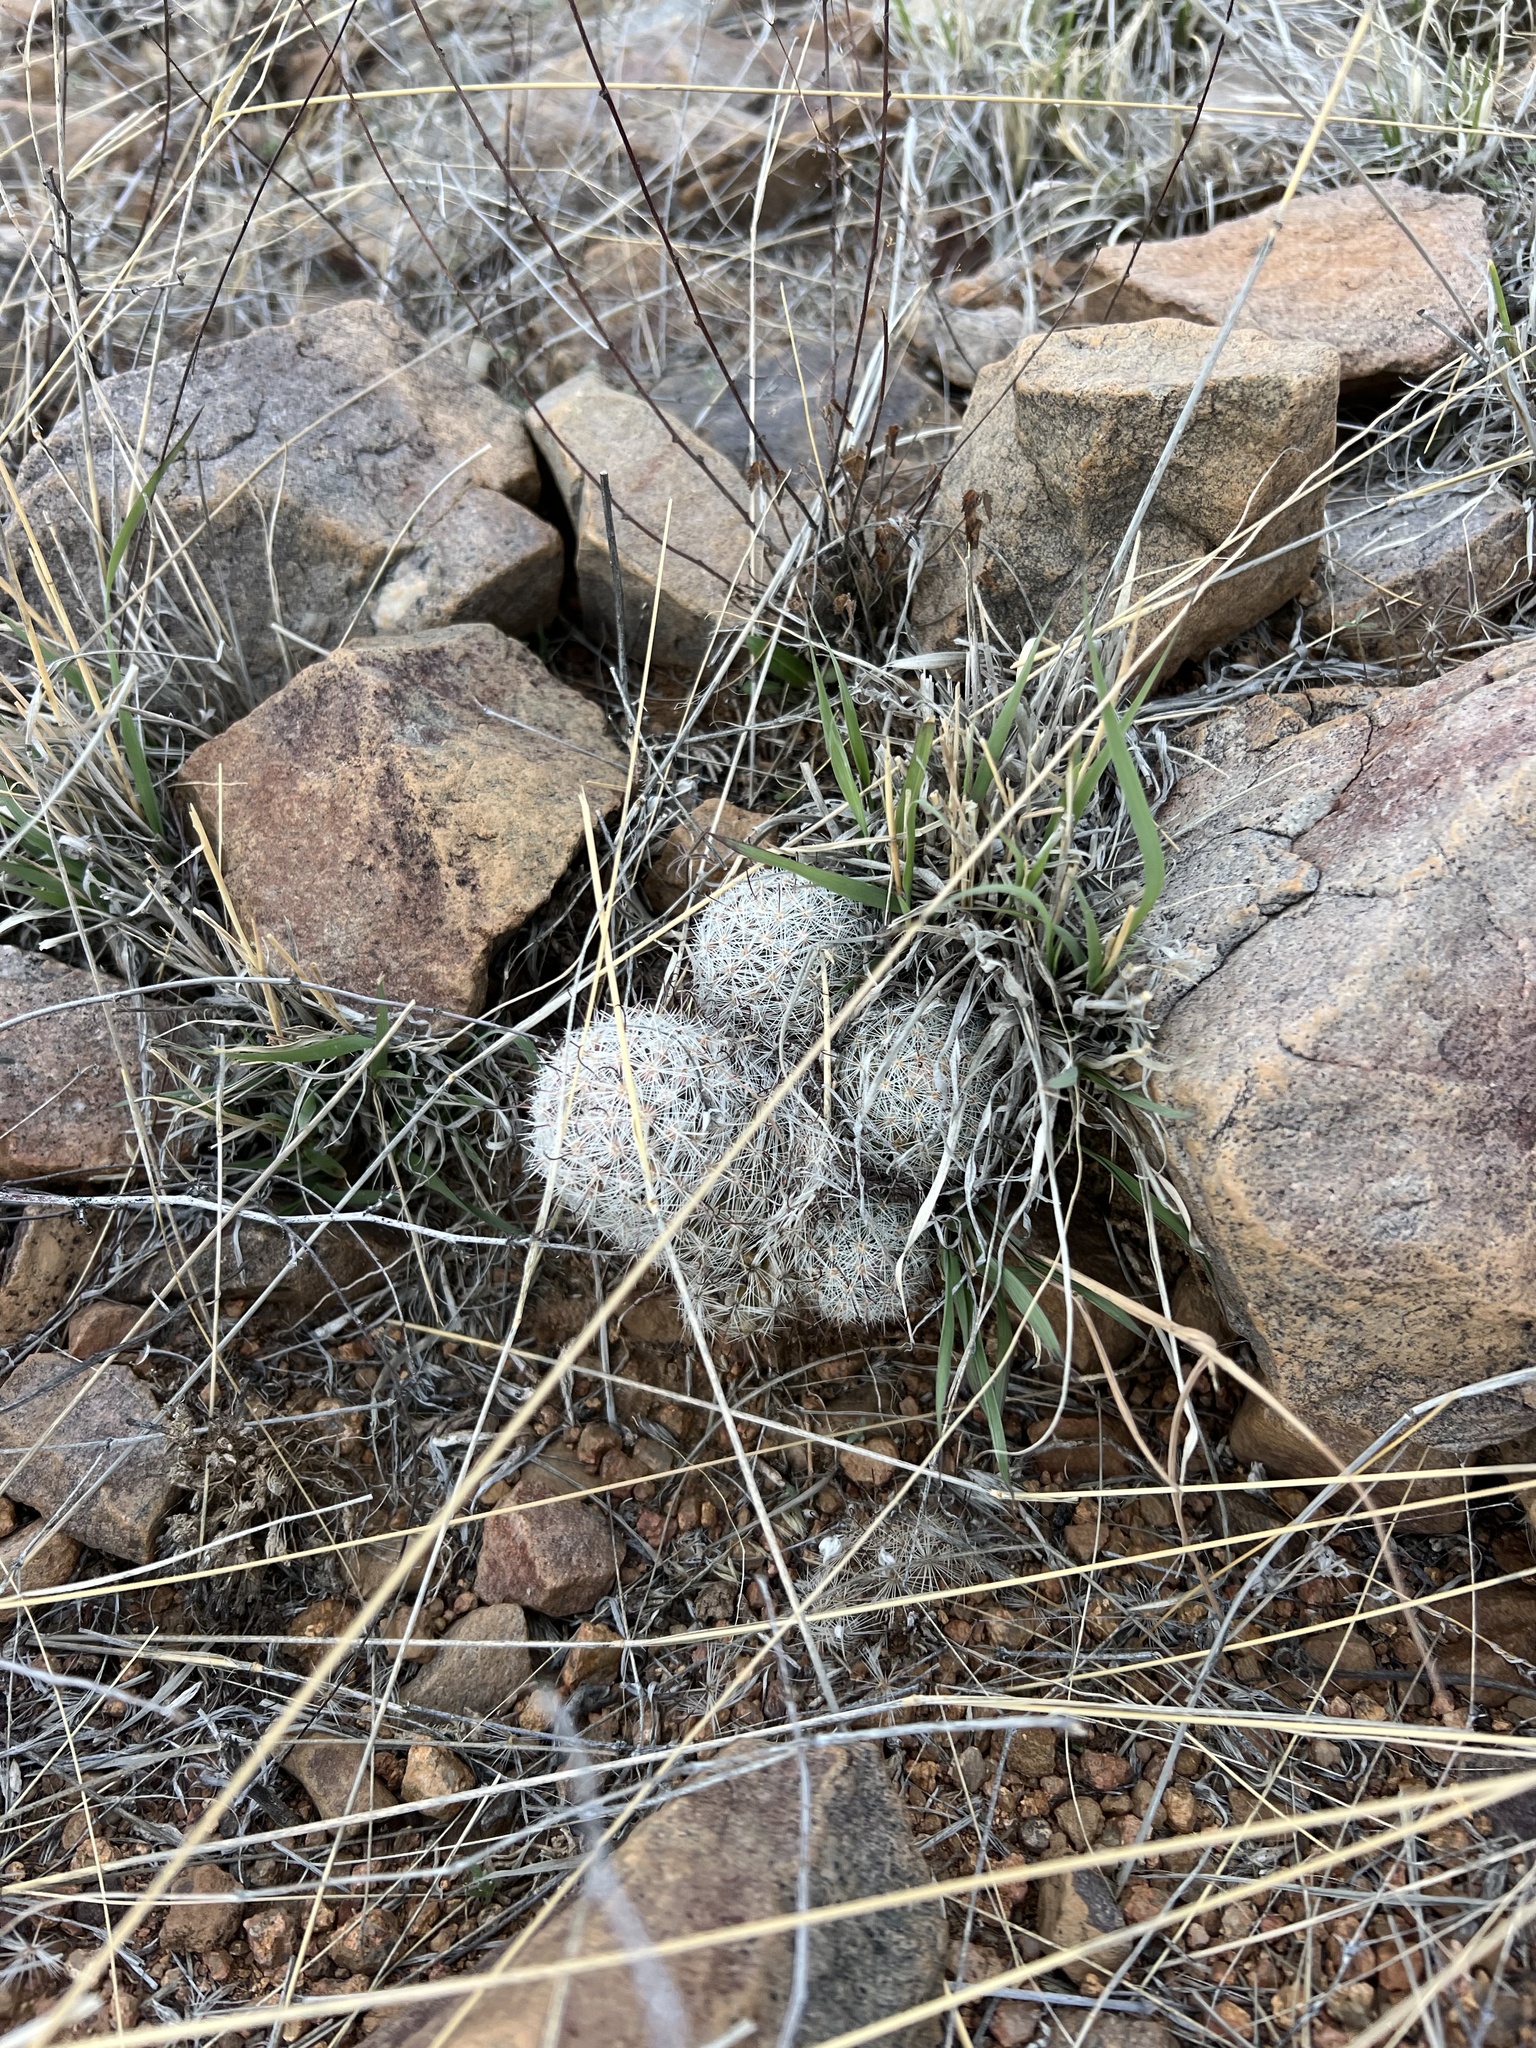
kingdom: Plantae
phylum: Tracheophyta
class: Magnoliopsida
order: Caryophyllales
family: Cactaceae
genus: Cochemiea
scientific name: Cochemiea grahamii
